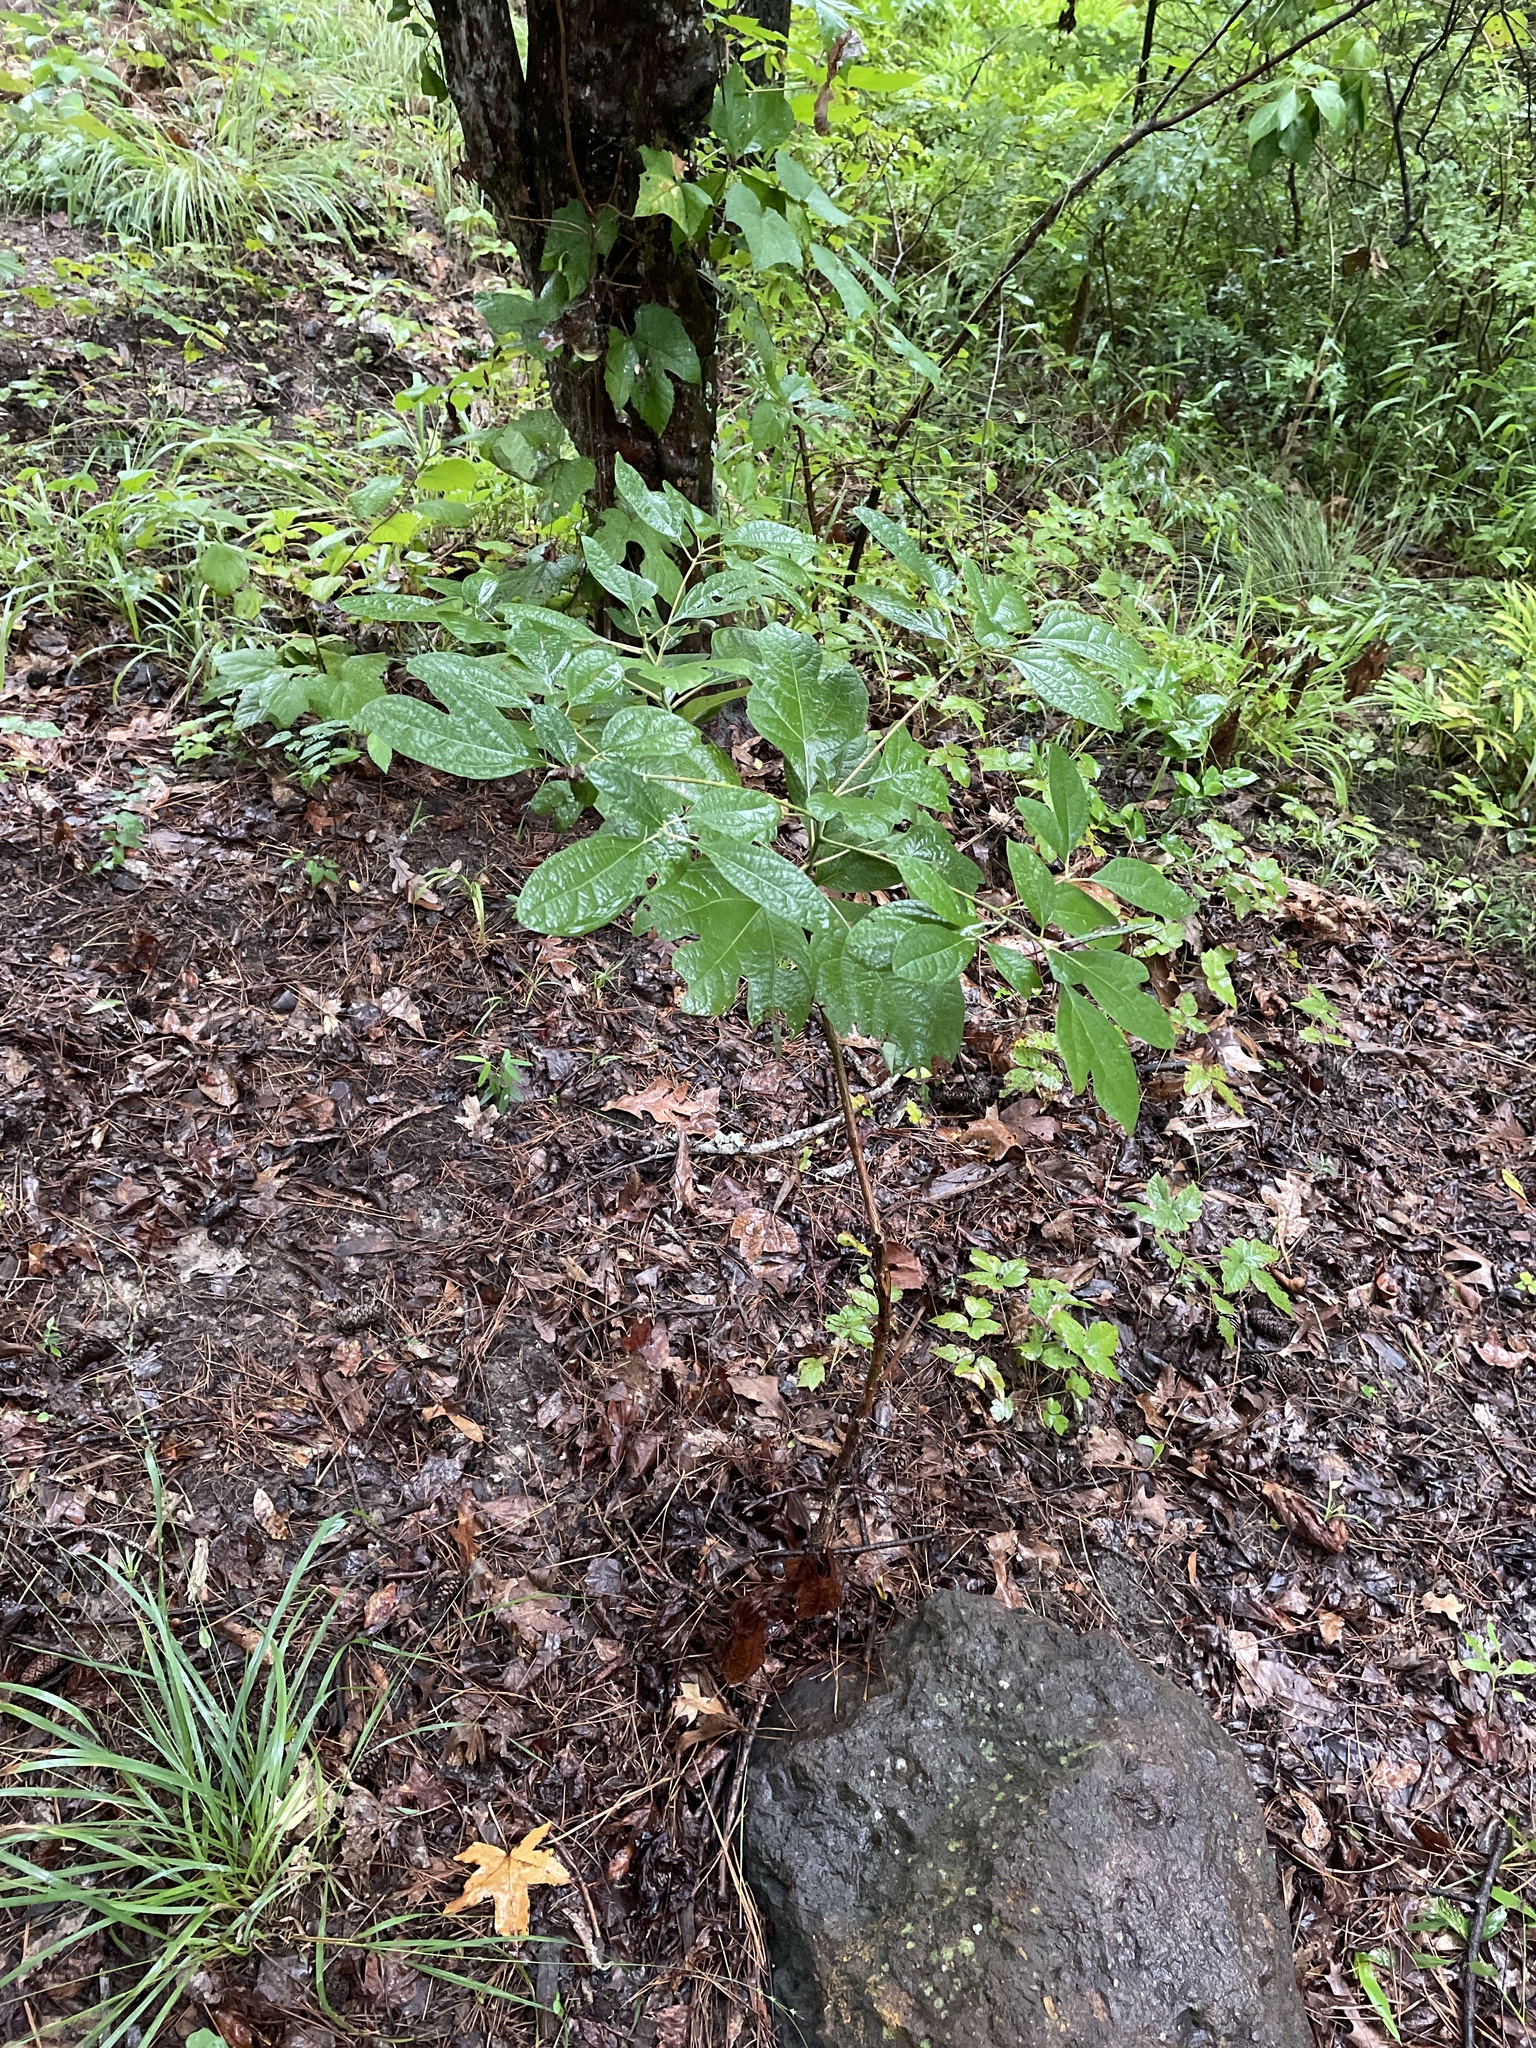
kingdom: Plantae
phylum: Tracheophyta
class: Magnoliopsida
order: Laurales
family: Lauraceae
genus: Sassafras
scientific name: Sassafras albidum
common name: Sassafras
